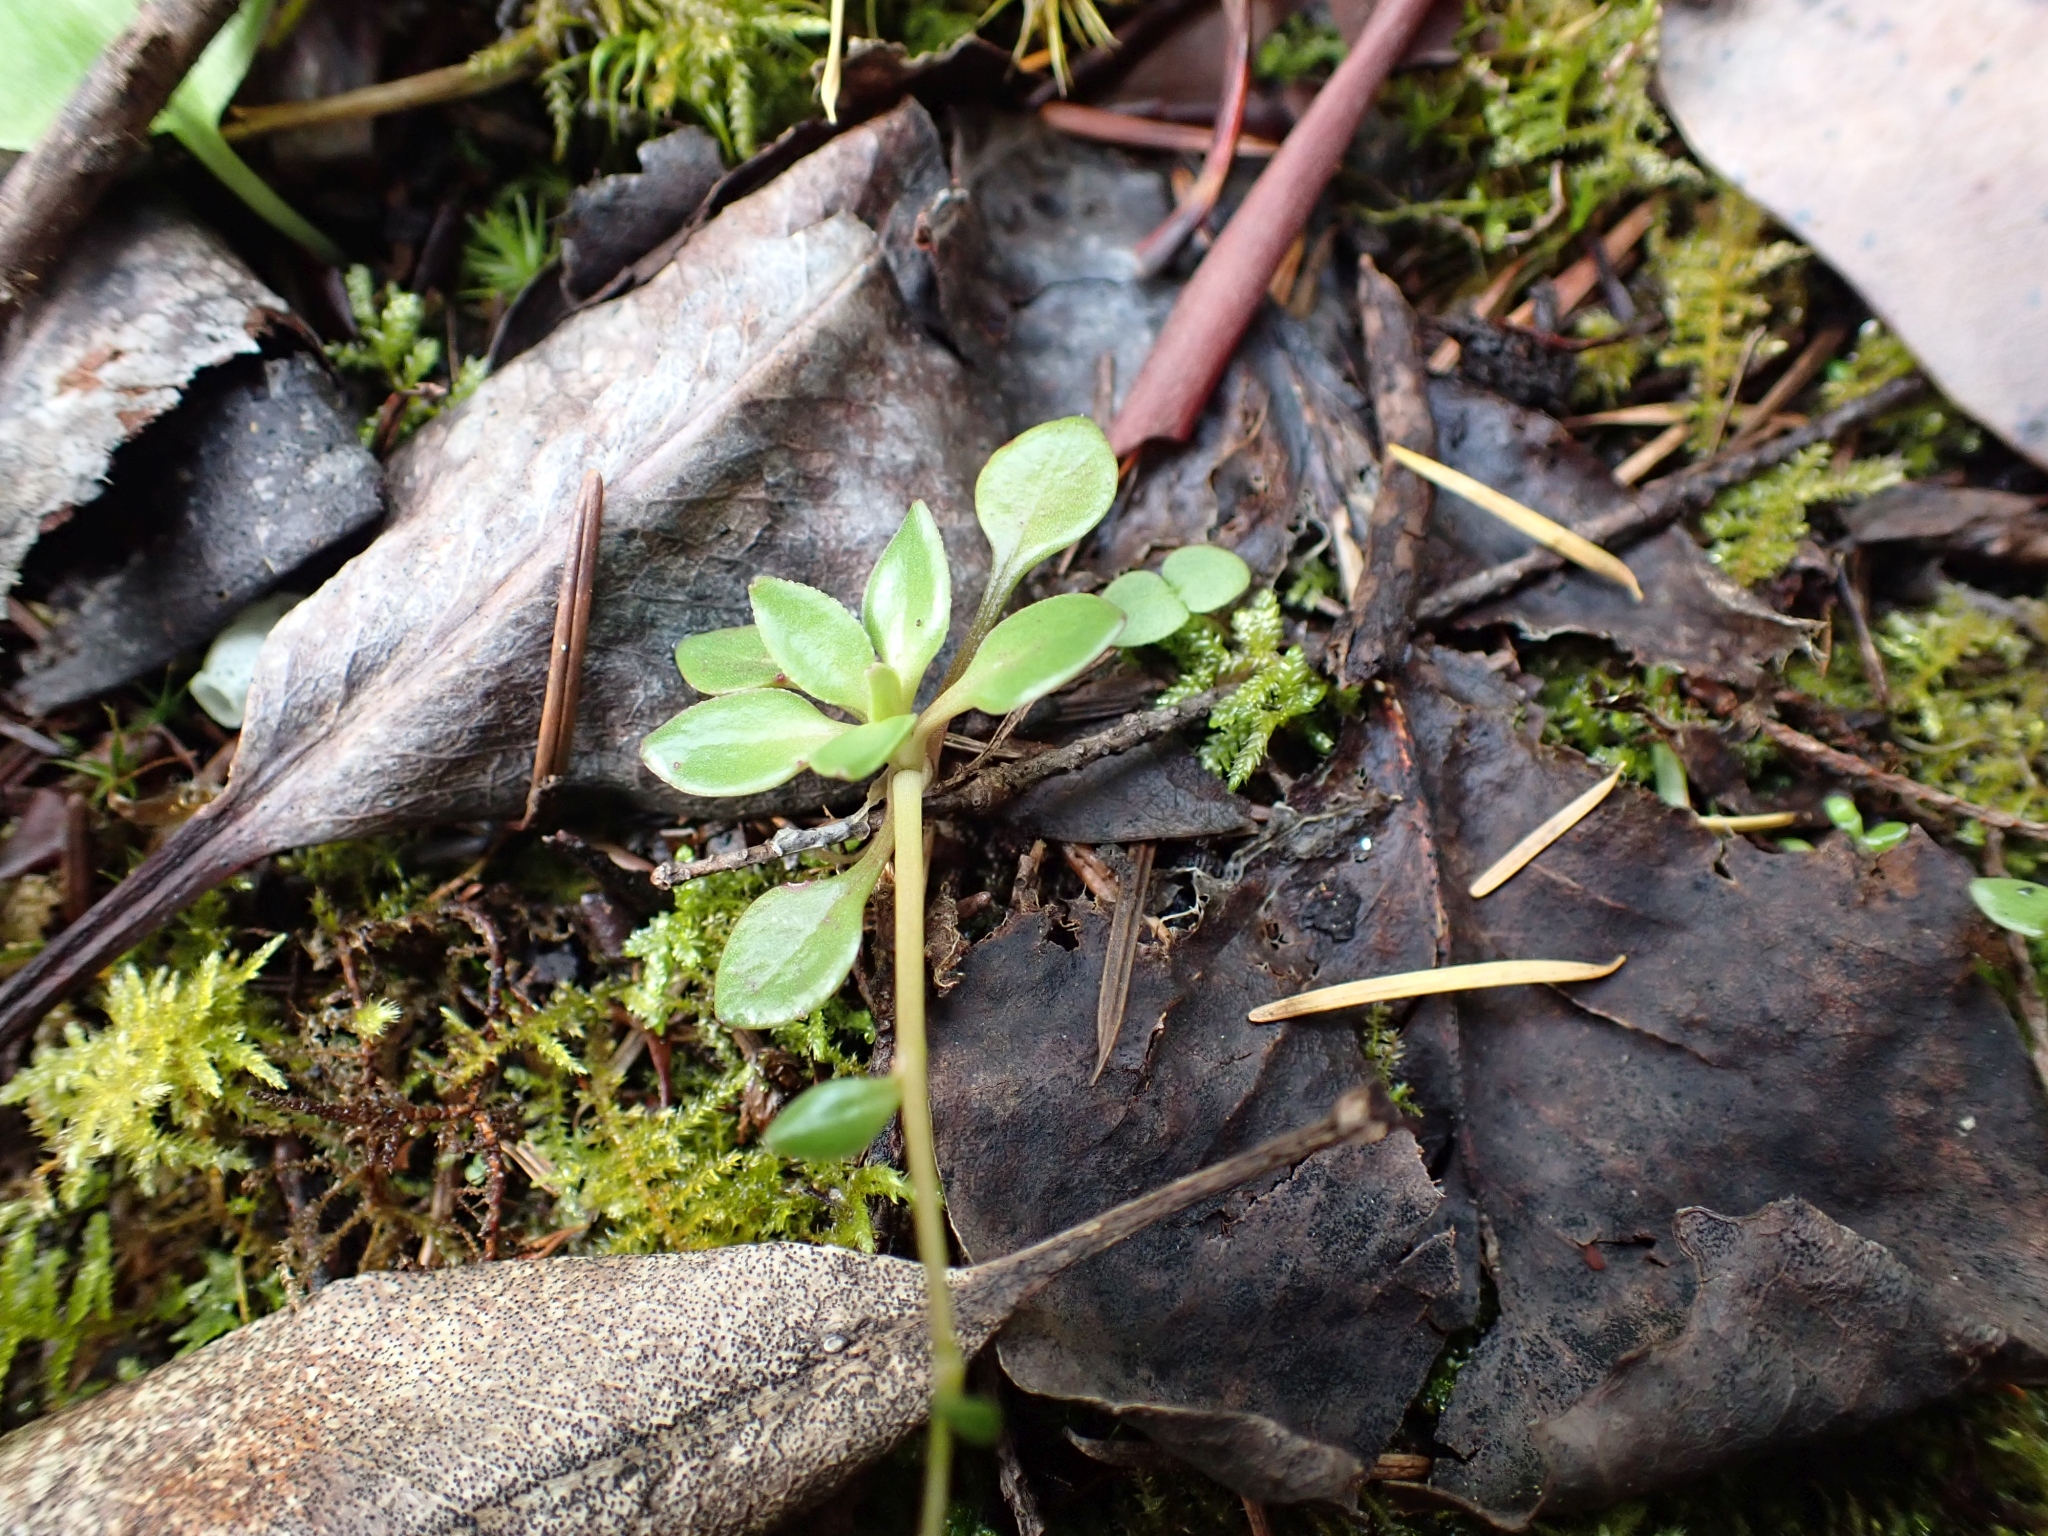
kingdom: Plantae
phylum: Tracheophyta
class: Magnoliopsida
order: Caryophyllales
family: Montiaceae
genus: Montia
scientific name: Montia parvifolia
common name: Small-leaved blinks
